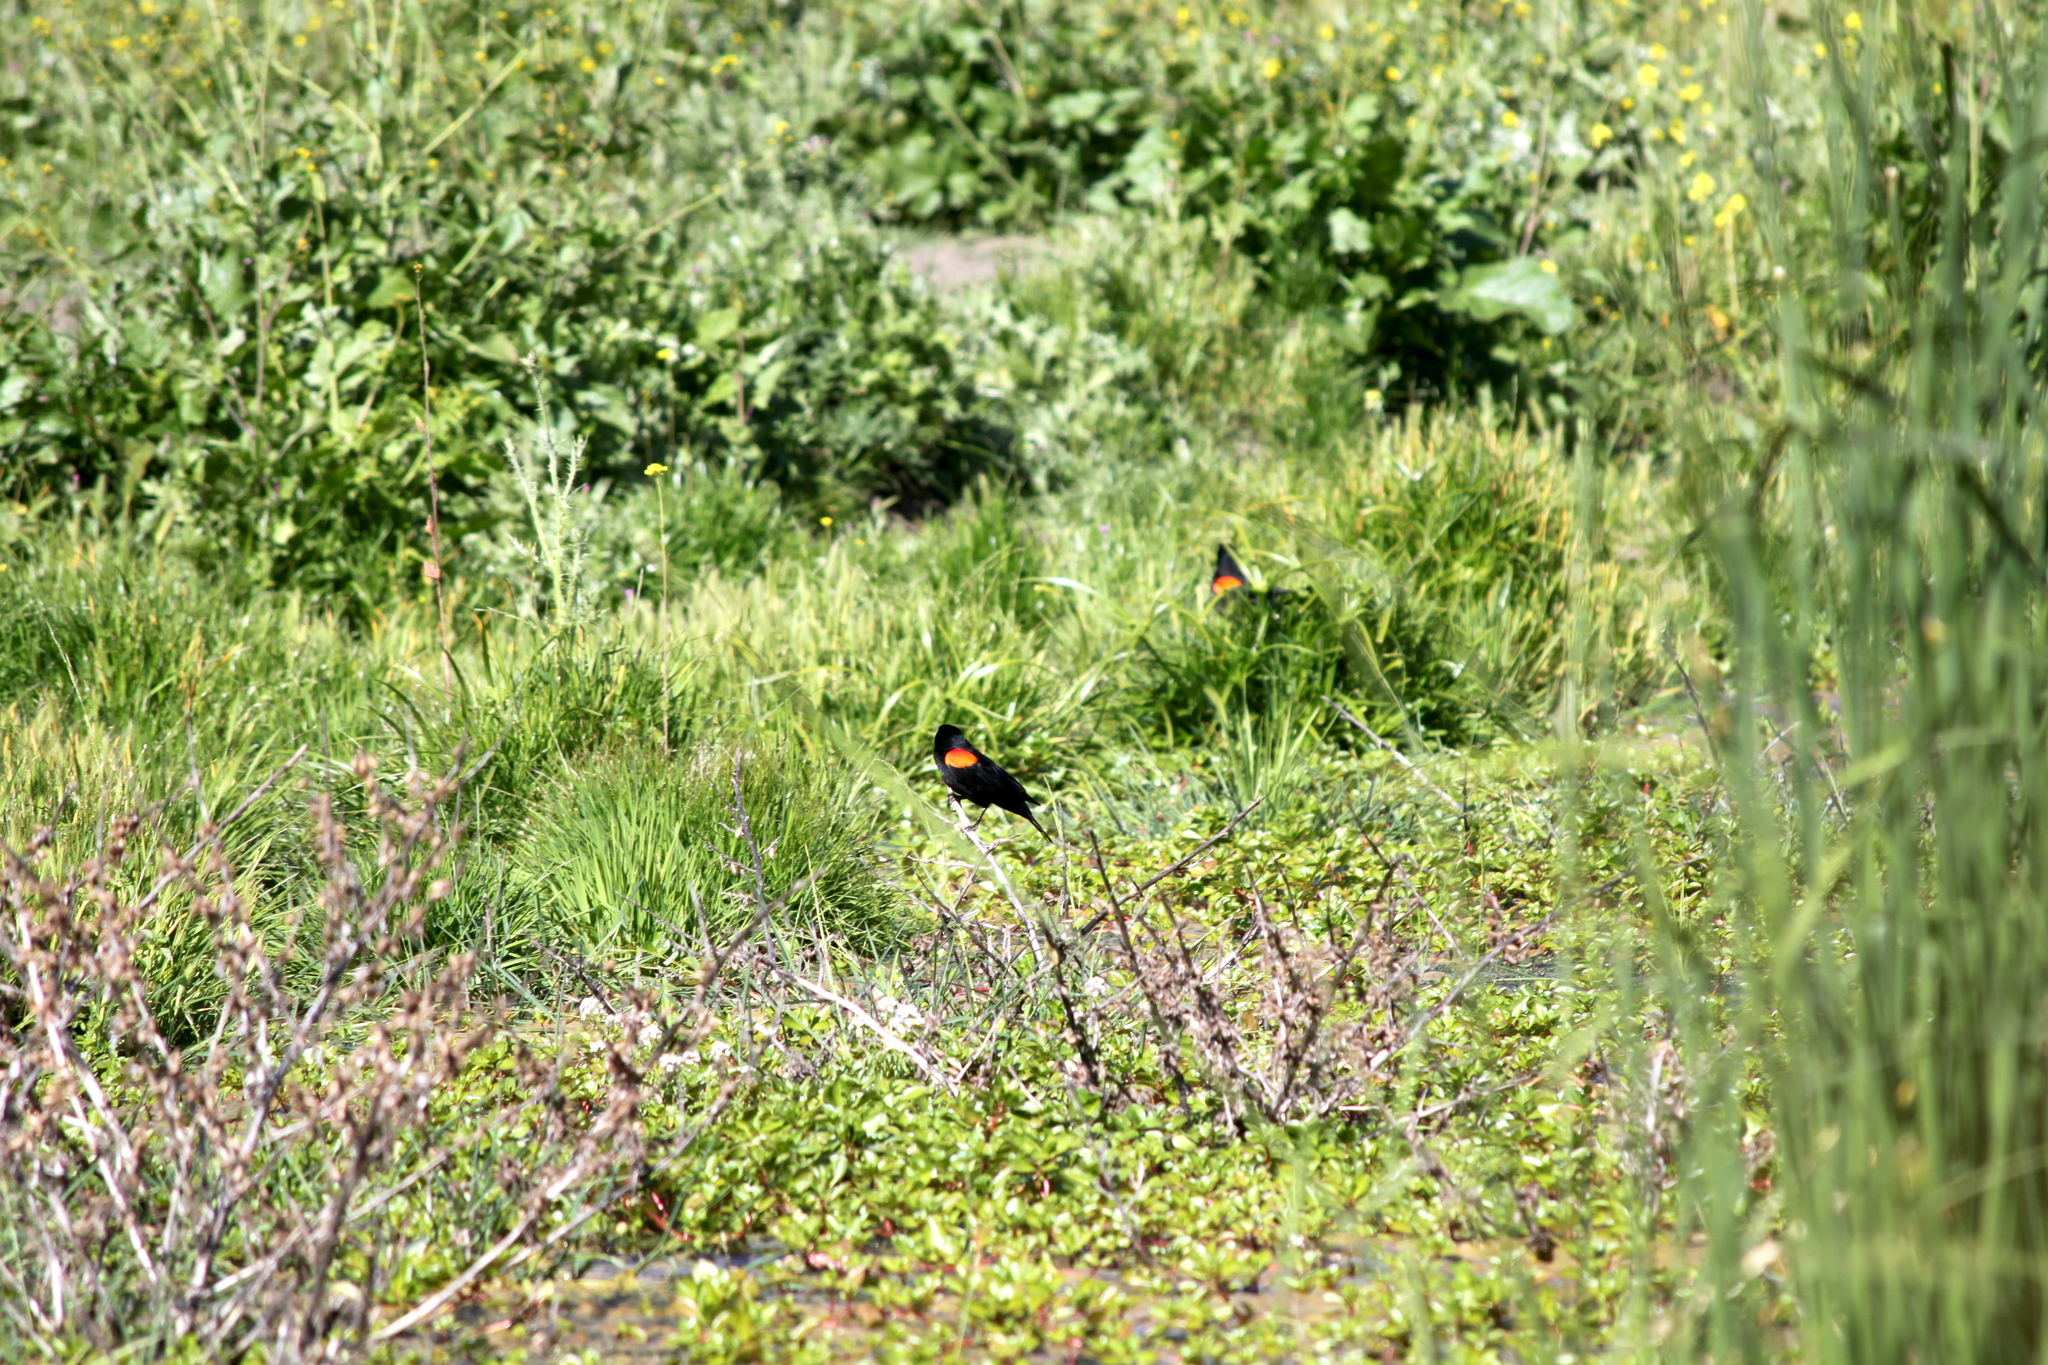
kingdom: Animalia
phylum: Chordata
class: Aves
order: Passeriformes
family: Icteridae
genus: Agelaius
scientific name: Agelaius phoeniceus
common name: Red-winged blackbird
